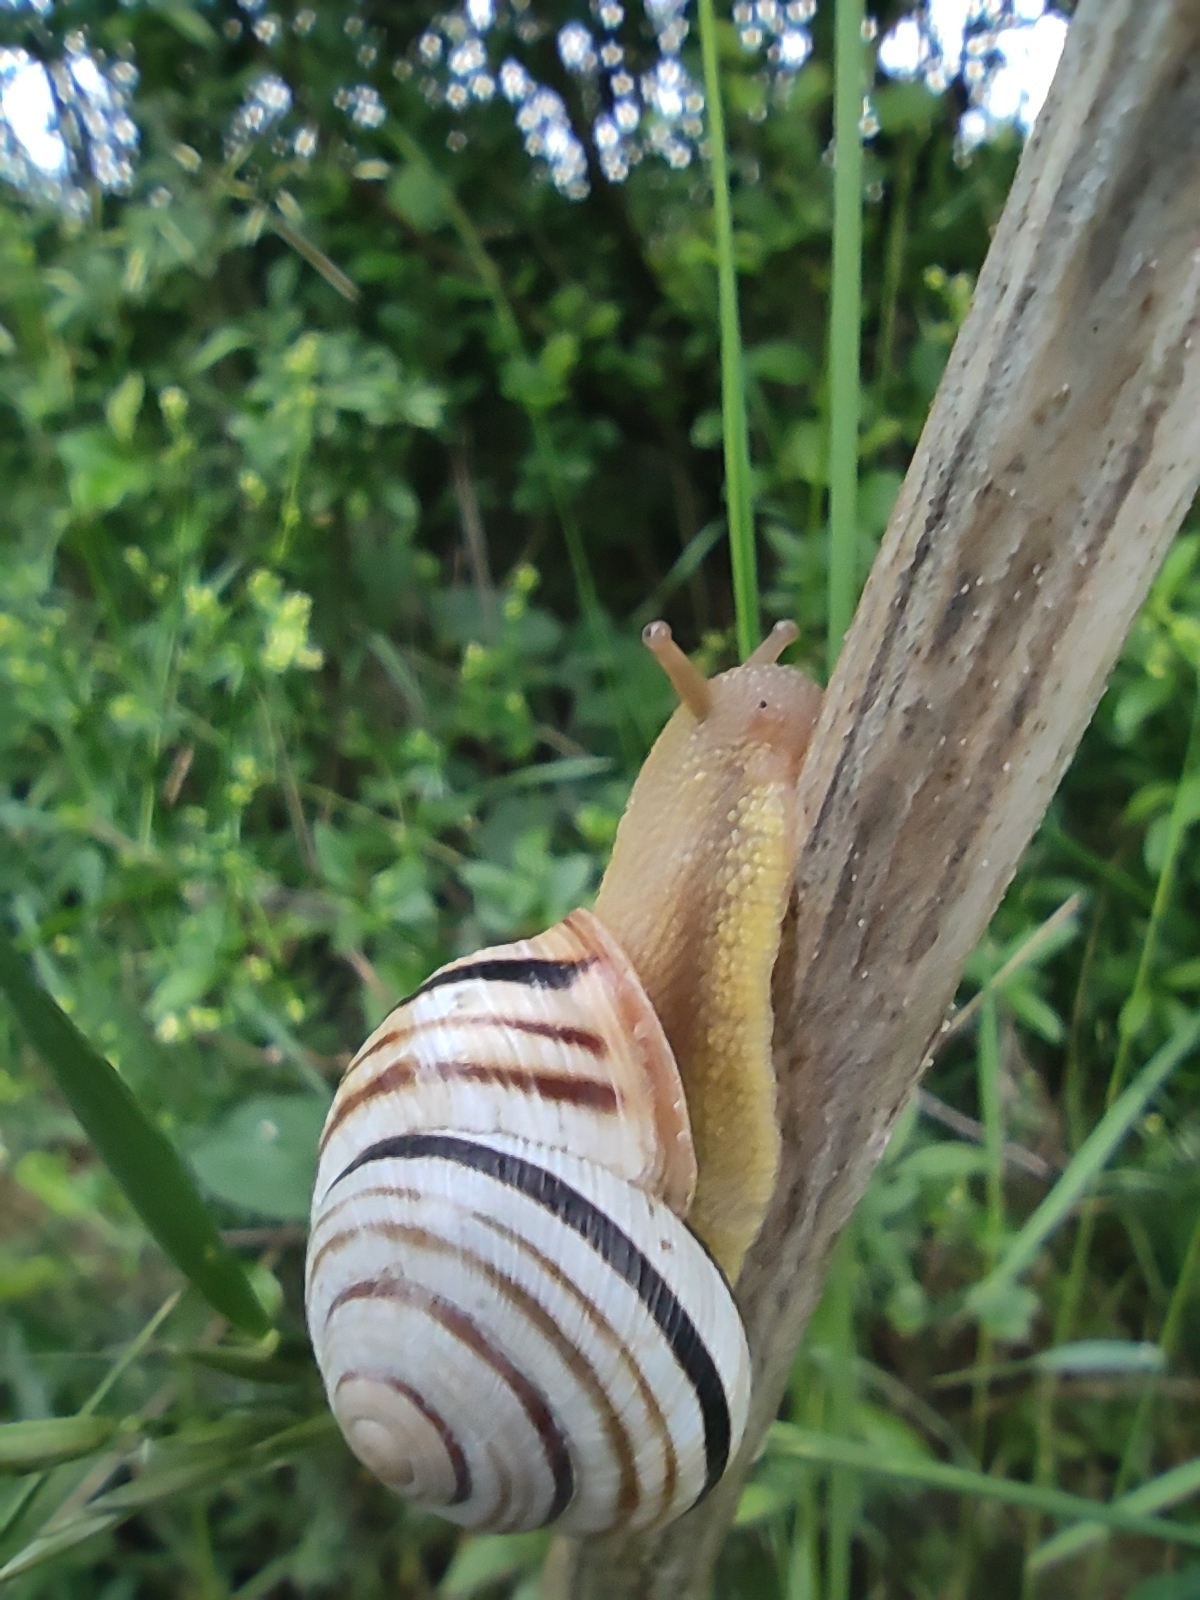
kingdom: Animalia
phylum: Mollusca
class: Gastropoda
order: Stylommatophora
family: Helicidae
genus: Caucasotachea
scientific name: Caucasotachea vindobonensis
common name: European helicid land snail
